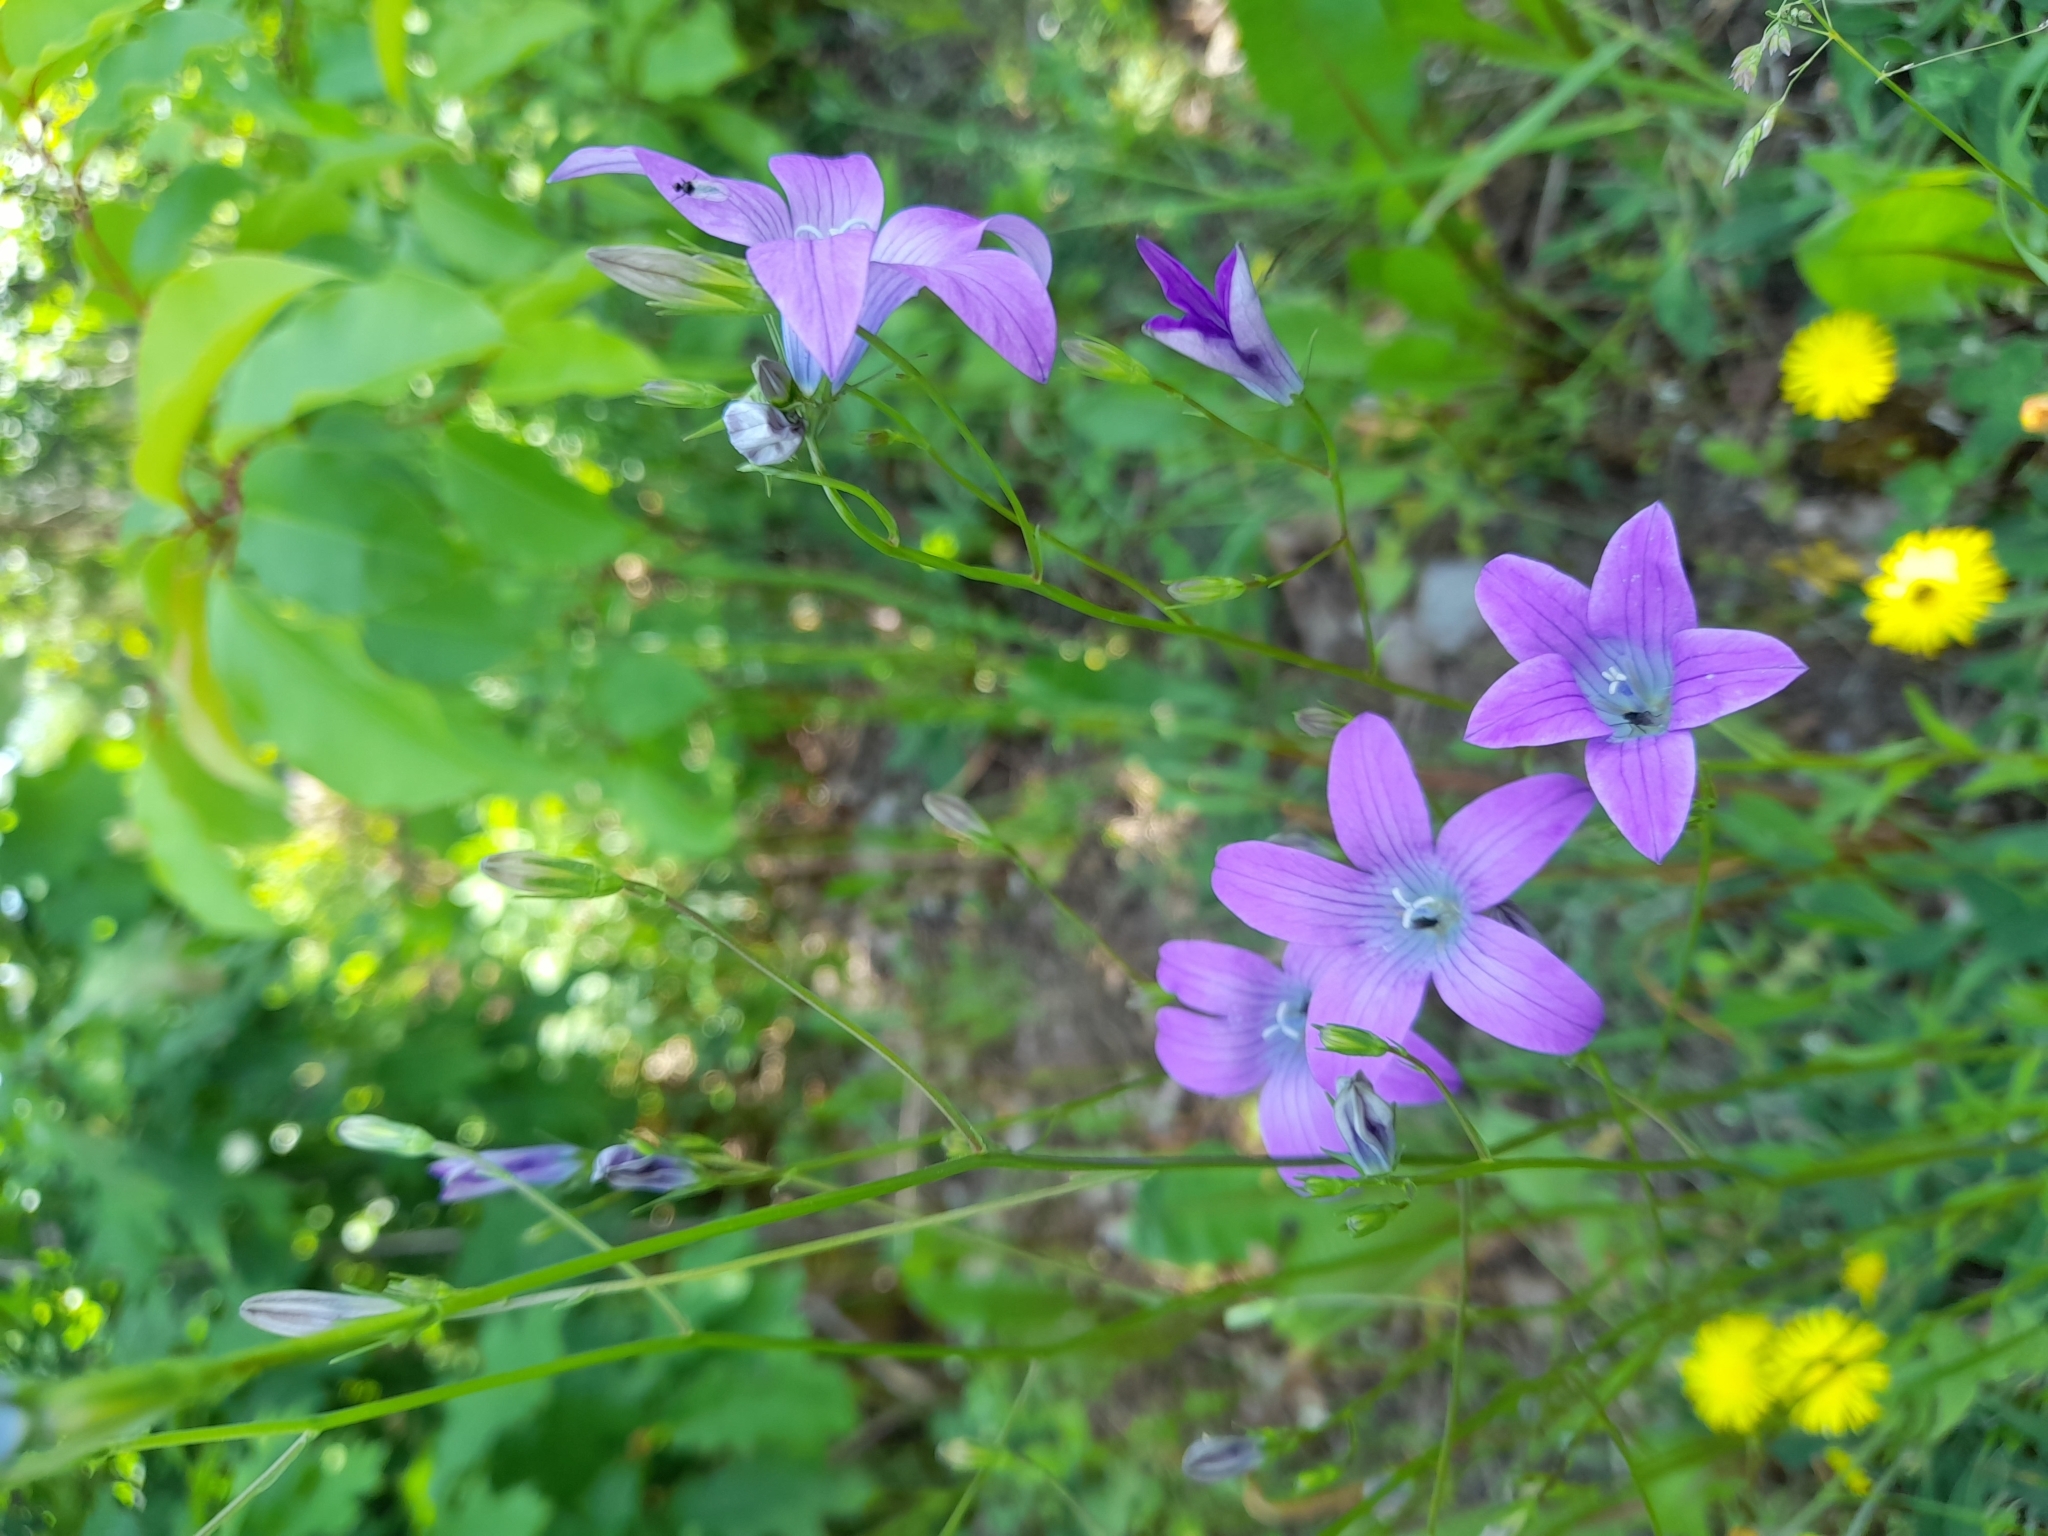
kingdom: Plantae
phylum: Tracheophyta
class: Magnoliopsida
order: Asterales
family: Campanulaceae
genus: Campanula
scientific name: Campanula patula
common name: Spreading bellflower
